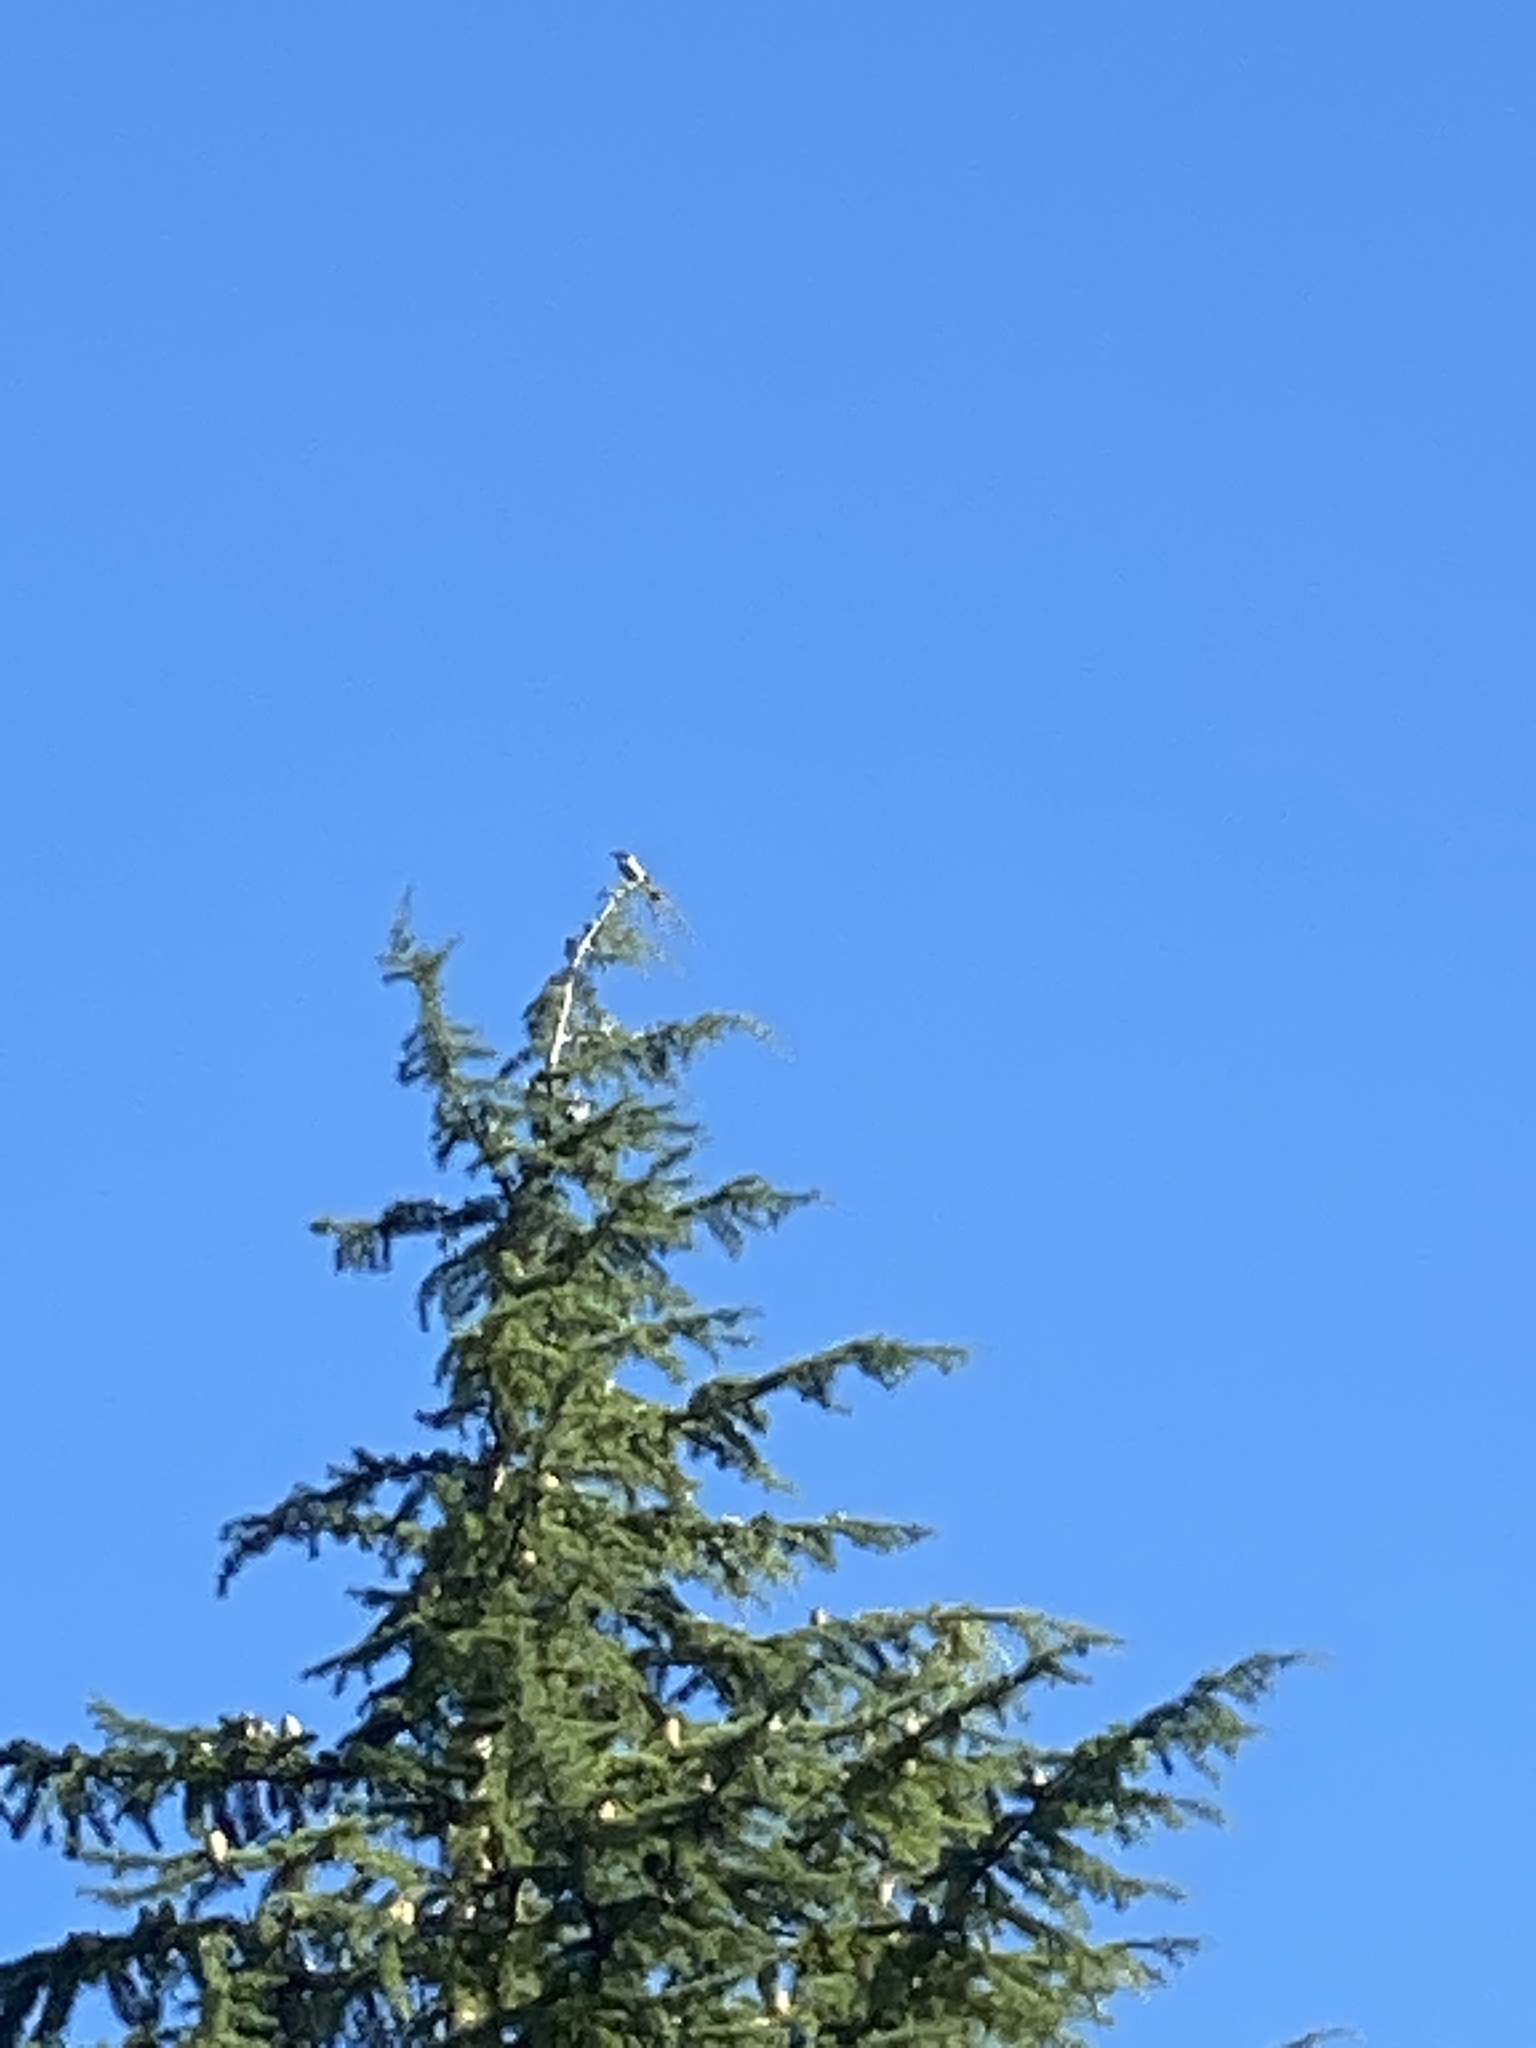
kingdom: Animalia
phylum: Chordata
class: Aves
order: Passeriformes
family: Corvidae
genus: Aphelocoma
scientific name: Aphelocoma californica
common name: California scrub-jay
